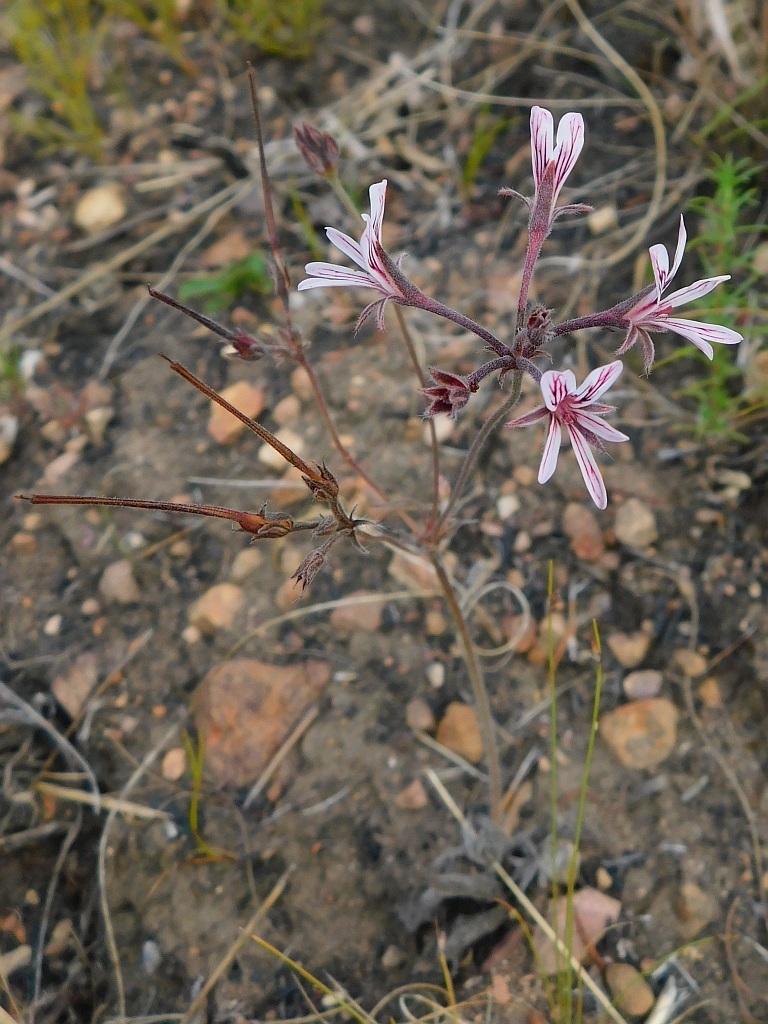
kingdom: Plantae
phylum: Tracheophyta
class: Magnoliopsida
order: Geraniales
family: Geraniaceae
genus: Pelargonium
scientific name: Pelargonium caledonicum
